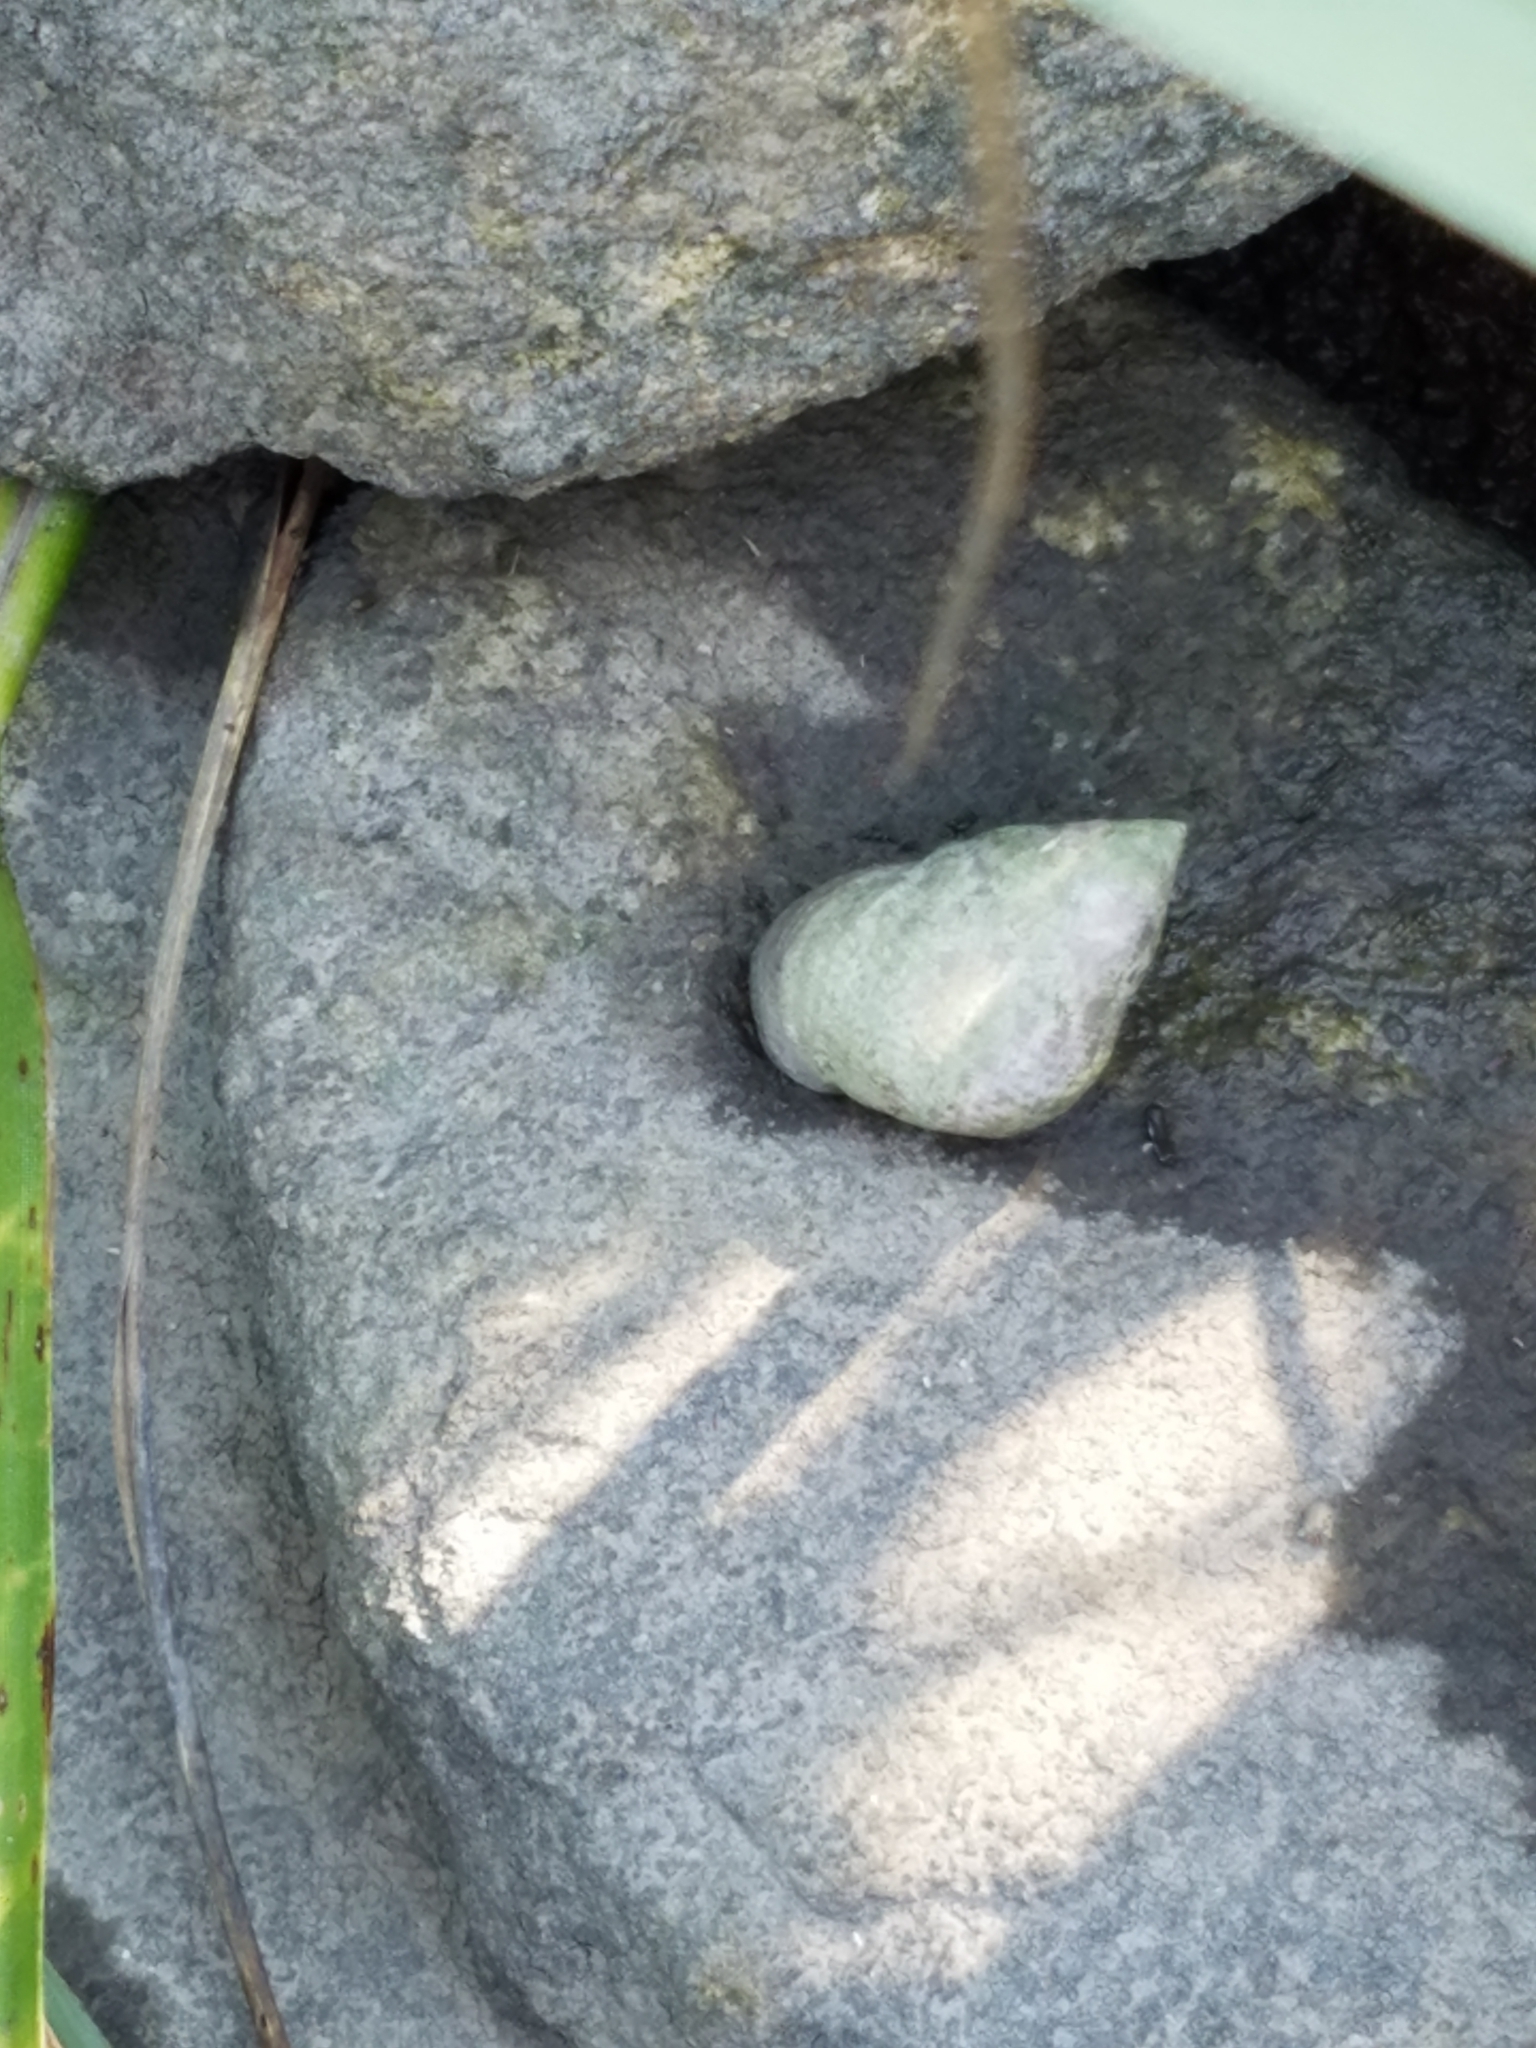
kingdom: Animalia
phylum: Mollusca
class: Gastropoda
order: Littorinimorpha
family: Littorinidae
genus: Littoraria
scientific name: Littoraria irrorata
